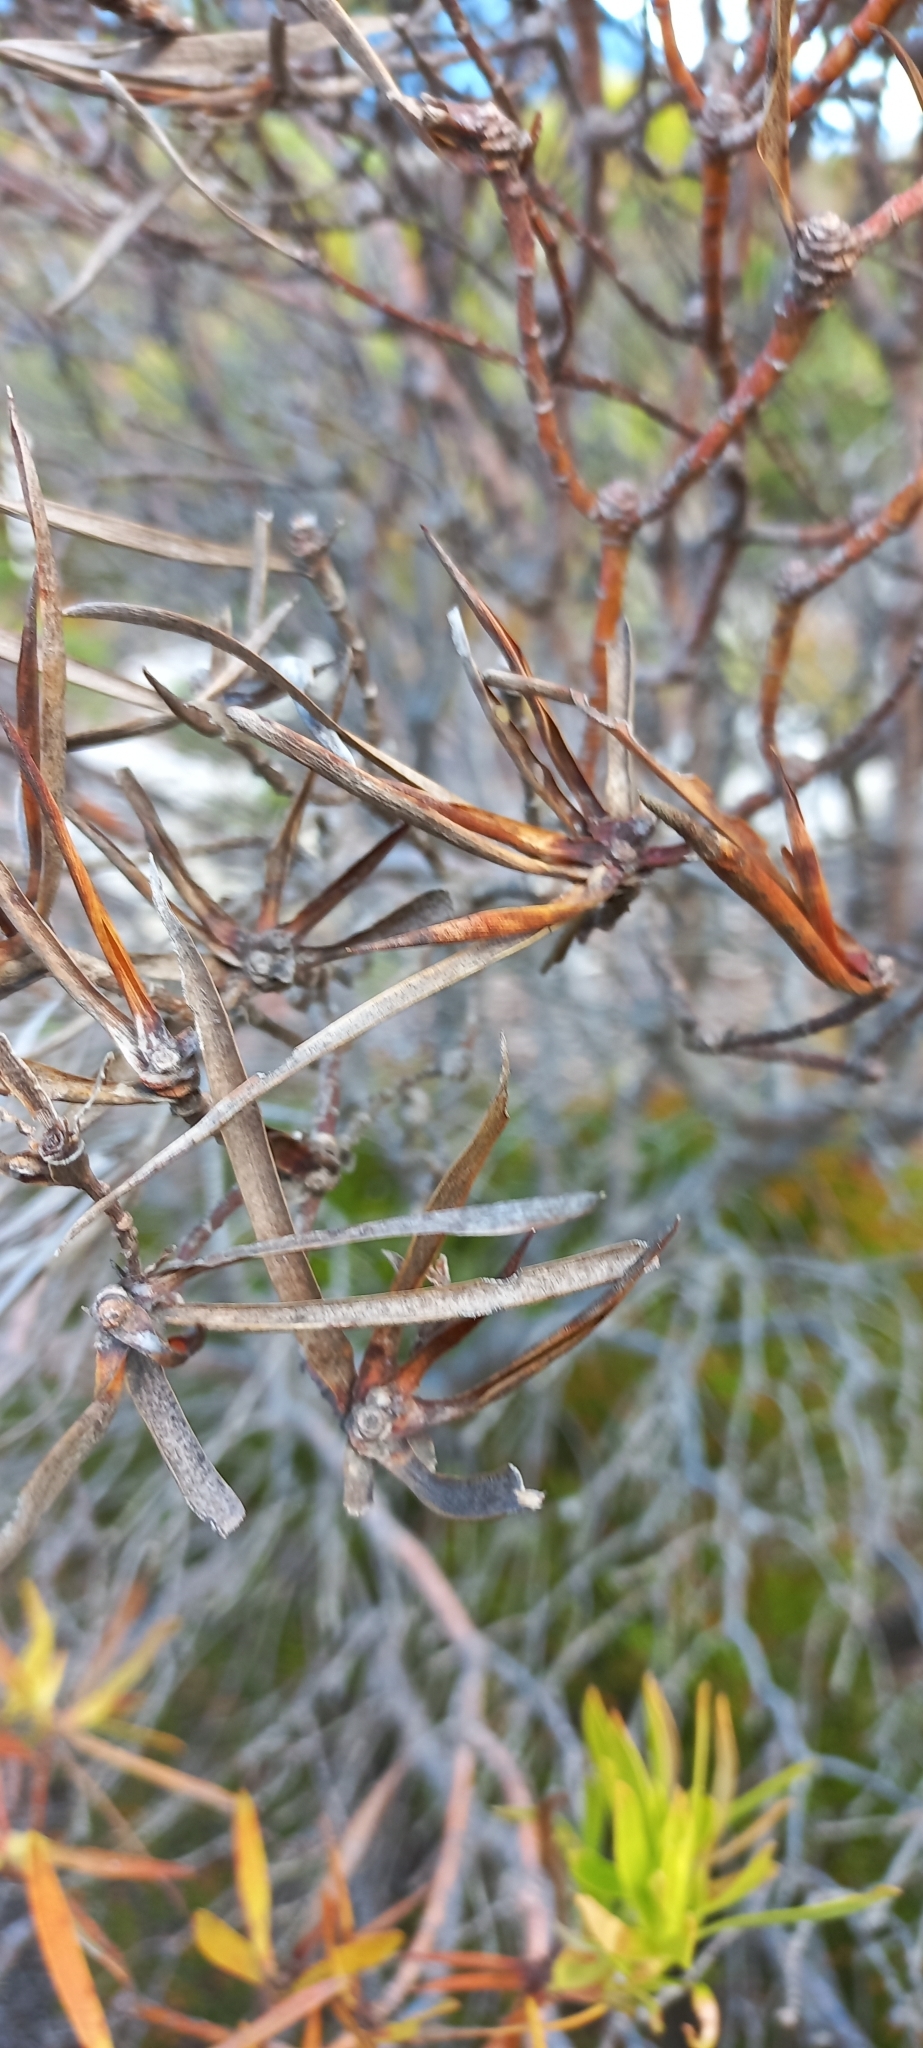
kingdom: Plantae
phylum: Tracheophyta
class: Magnoliopsida
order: Proteales
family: Proteaceae
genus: Leucadendron
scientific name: Leucadendron coniferum
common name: Dune conebush
